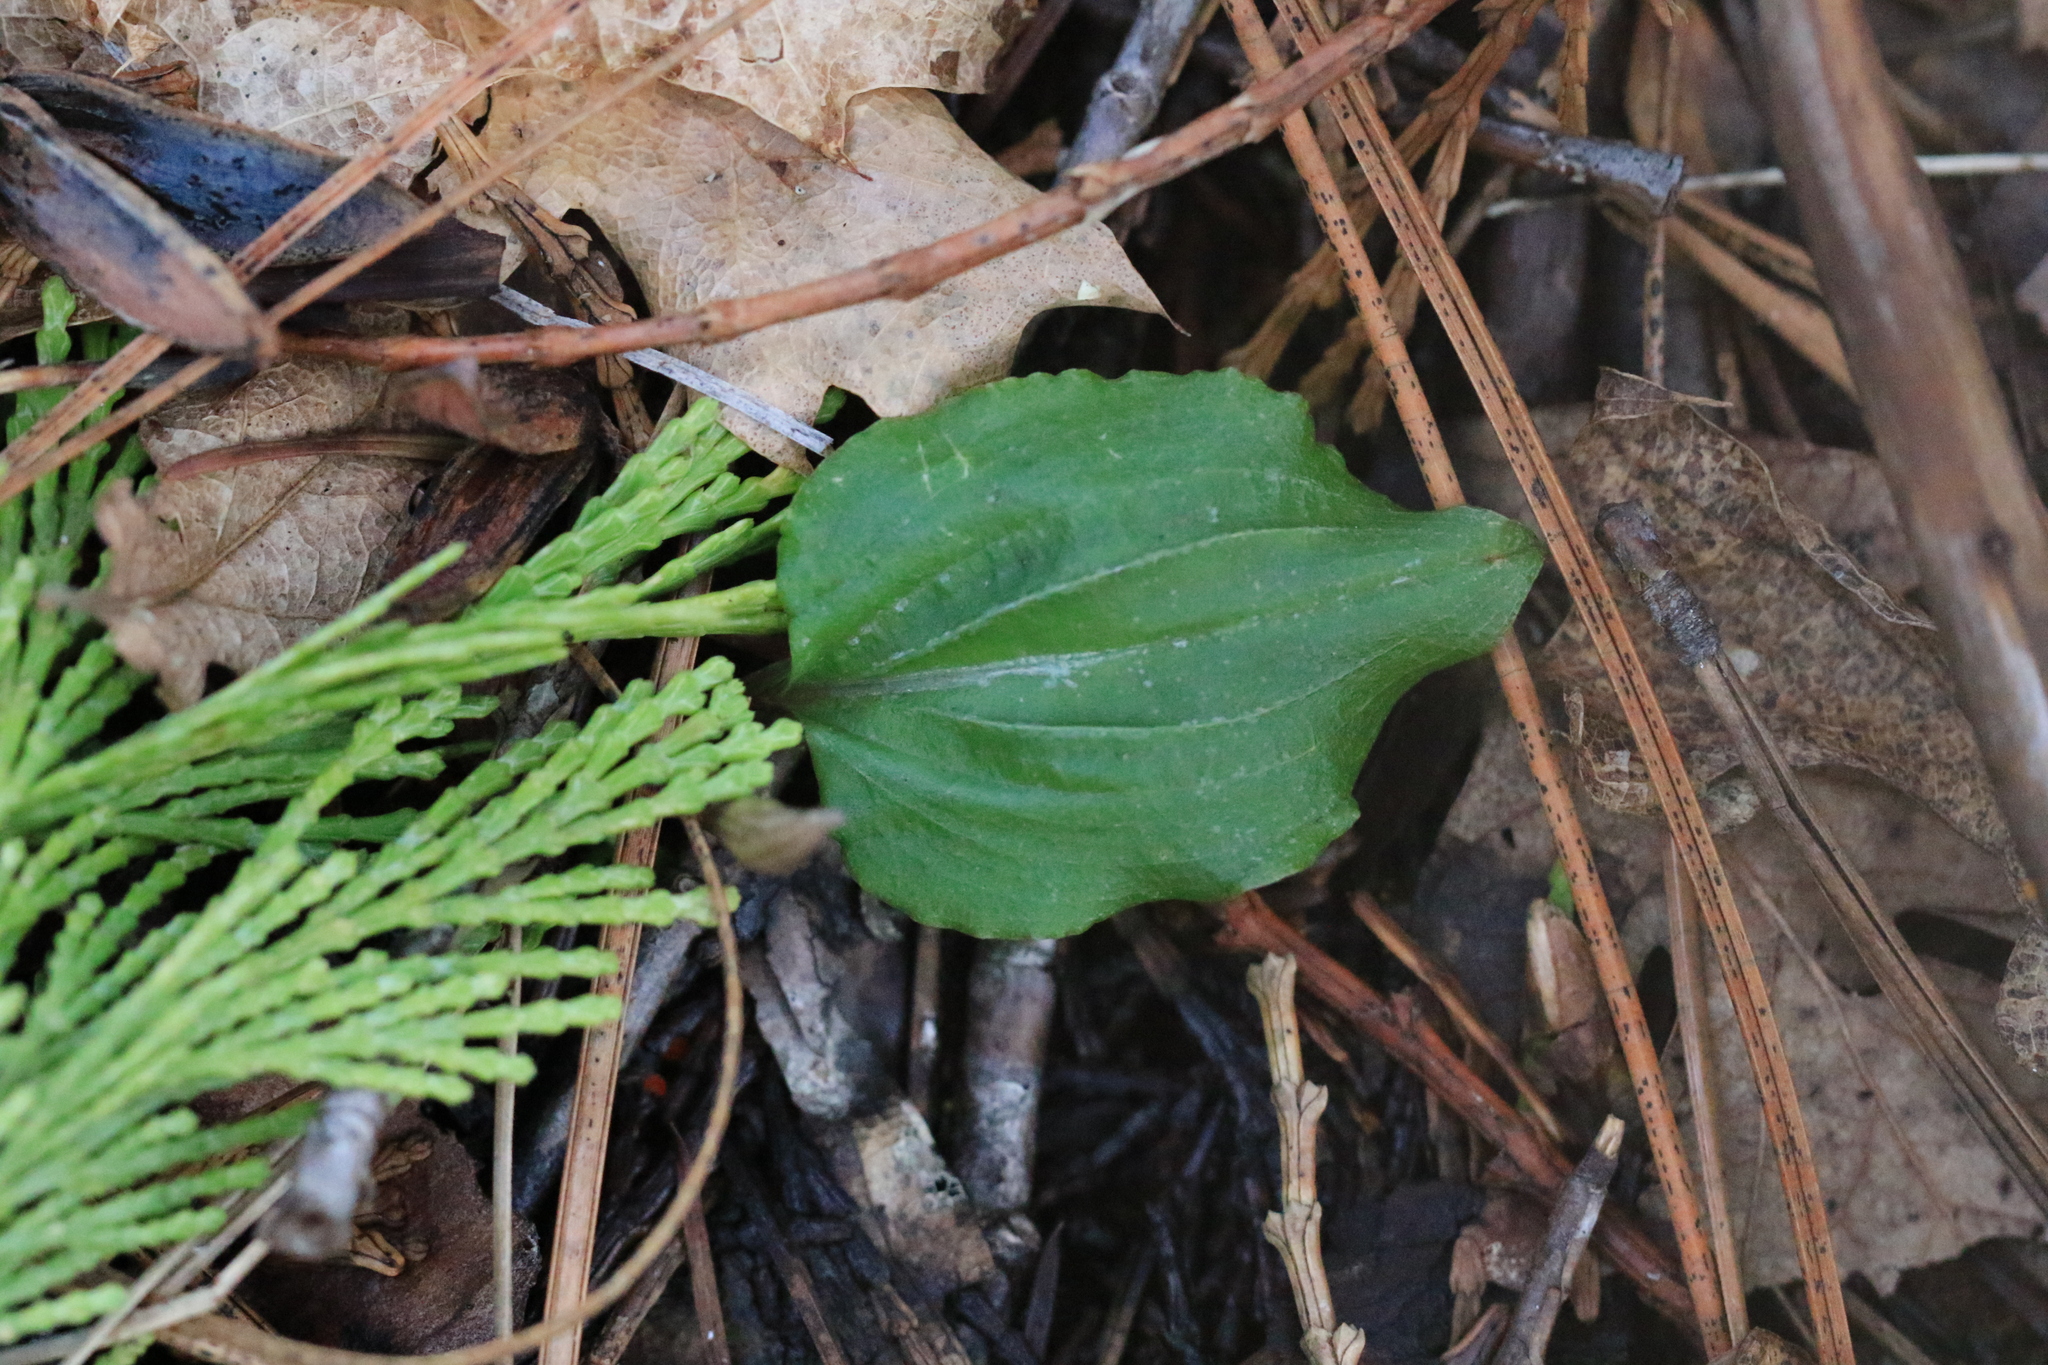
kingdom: Plantae
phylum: Tracheophyta
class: Liliopsida
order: Asparagales
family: Orchidaceae
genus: Calypso
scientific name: Calypso bulbosa
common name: Calypso
